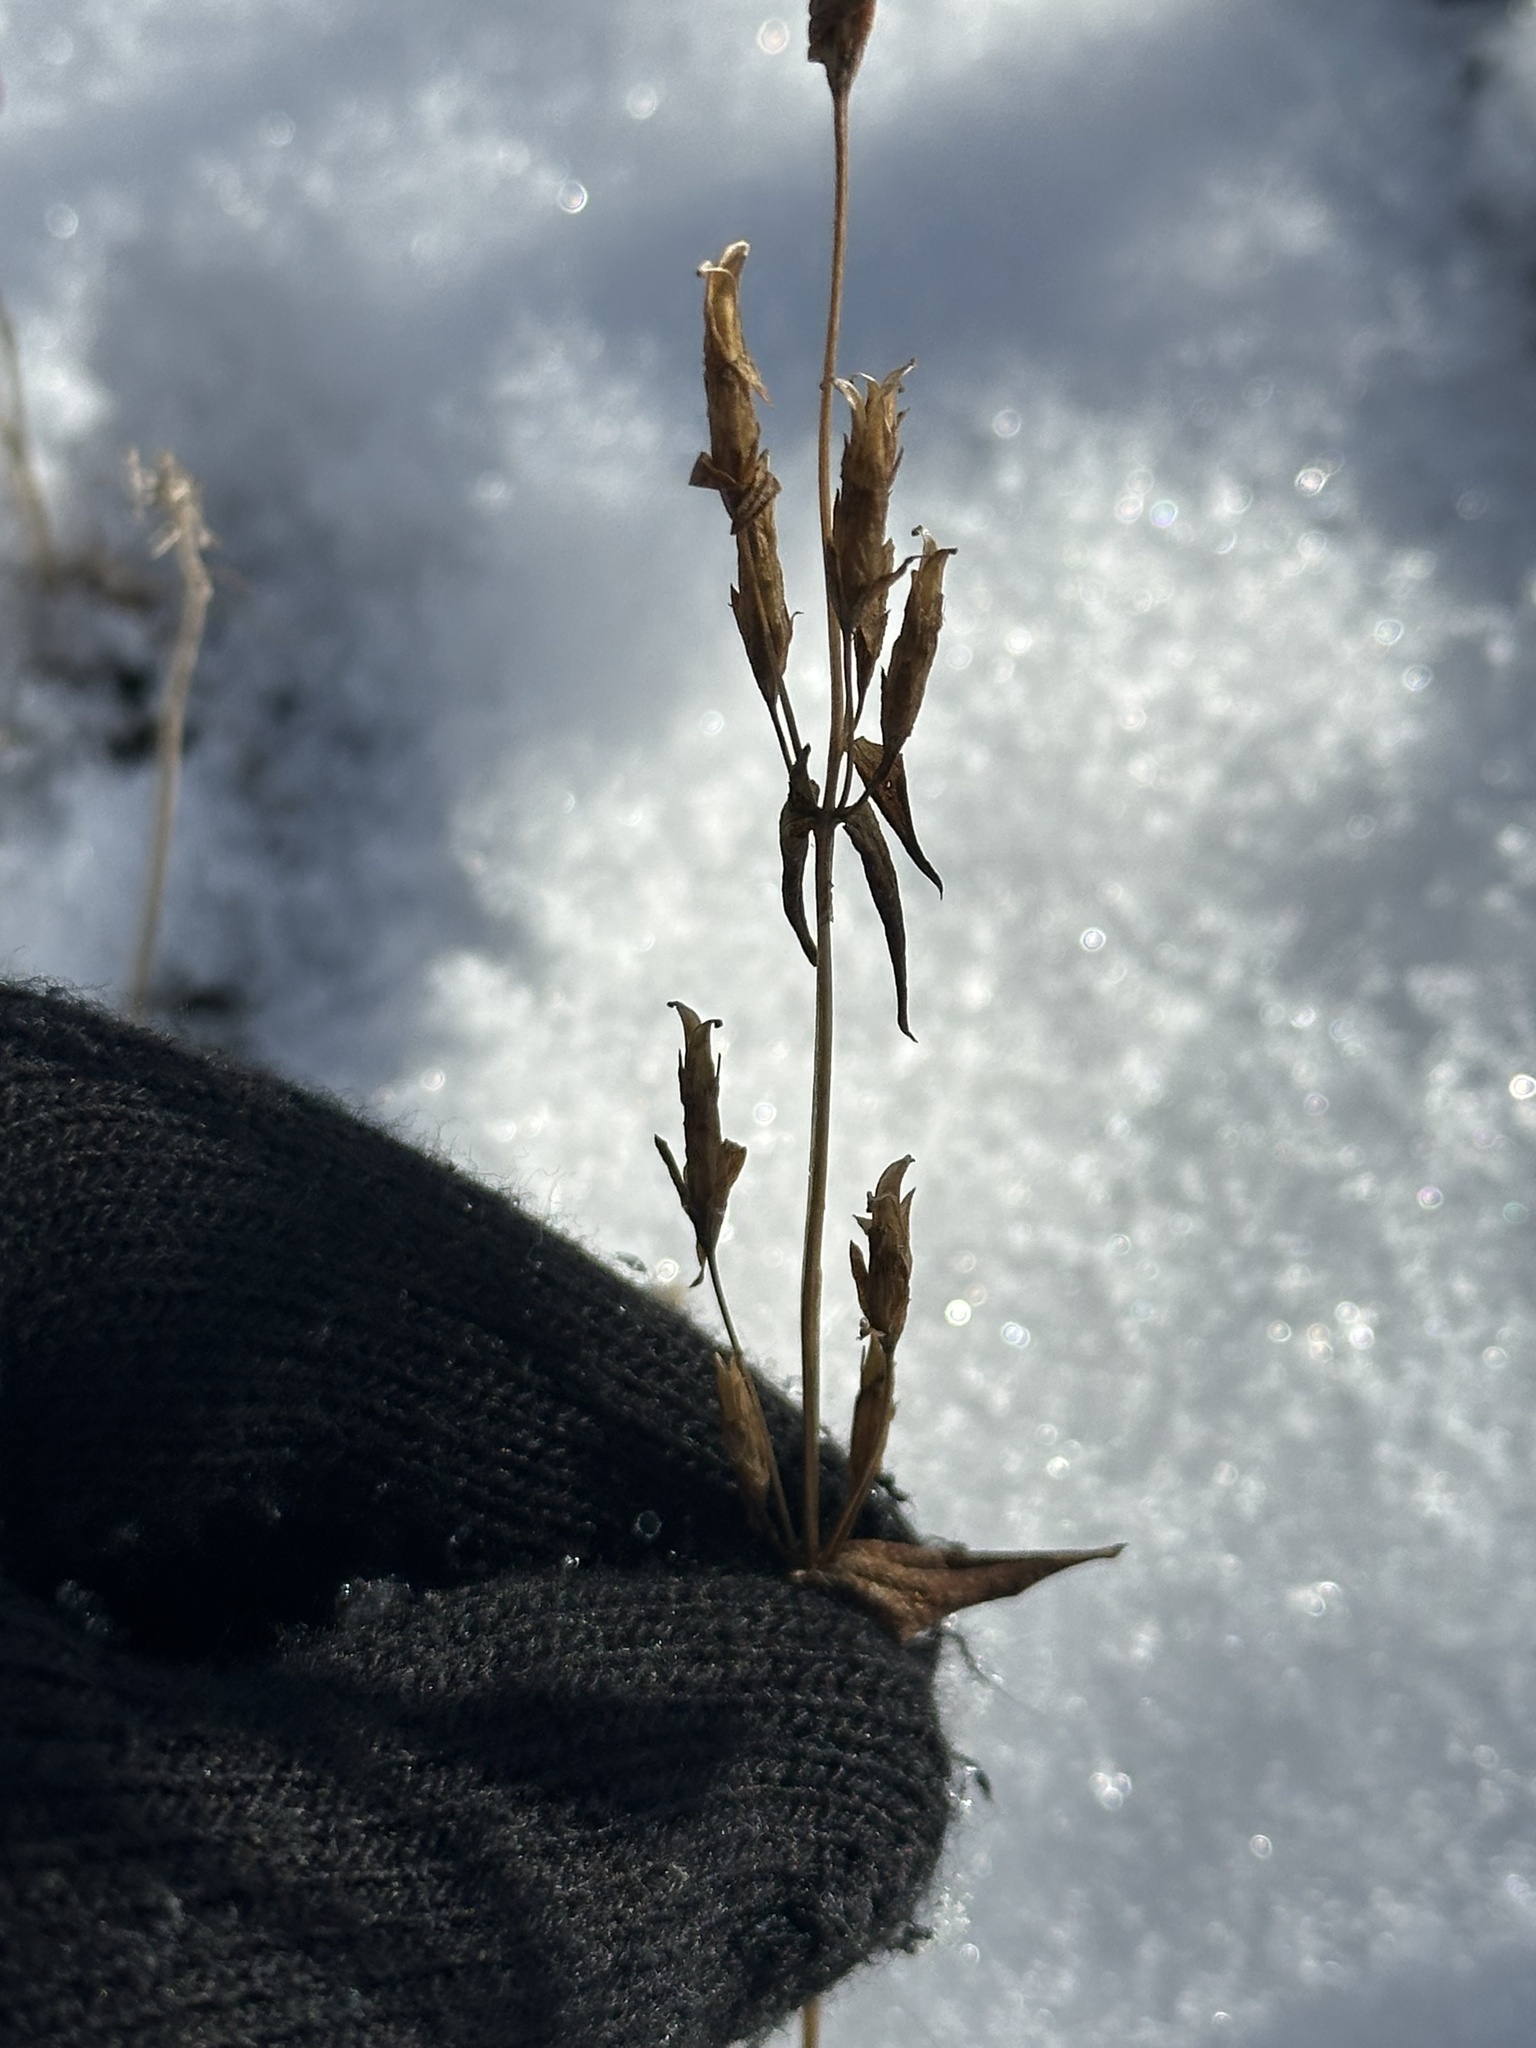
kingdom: Plantae
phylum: Tracheophyta
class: Magnoliopsida
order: Gentianales
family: Gentianaceae
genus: Gentianella
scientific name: Gentianella amarella
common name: Autumn gentian
